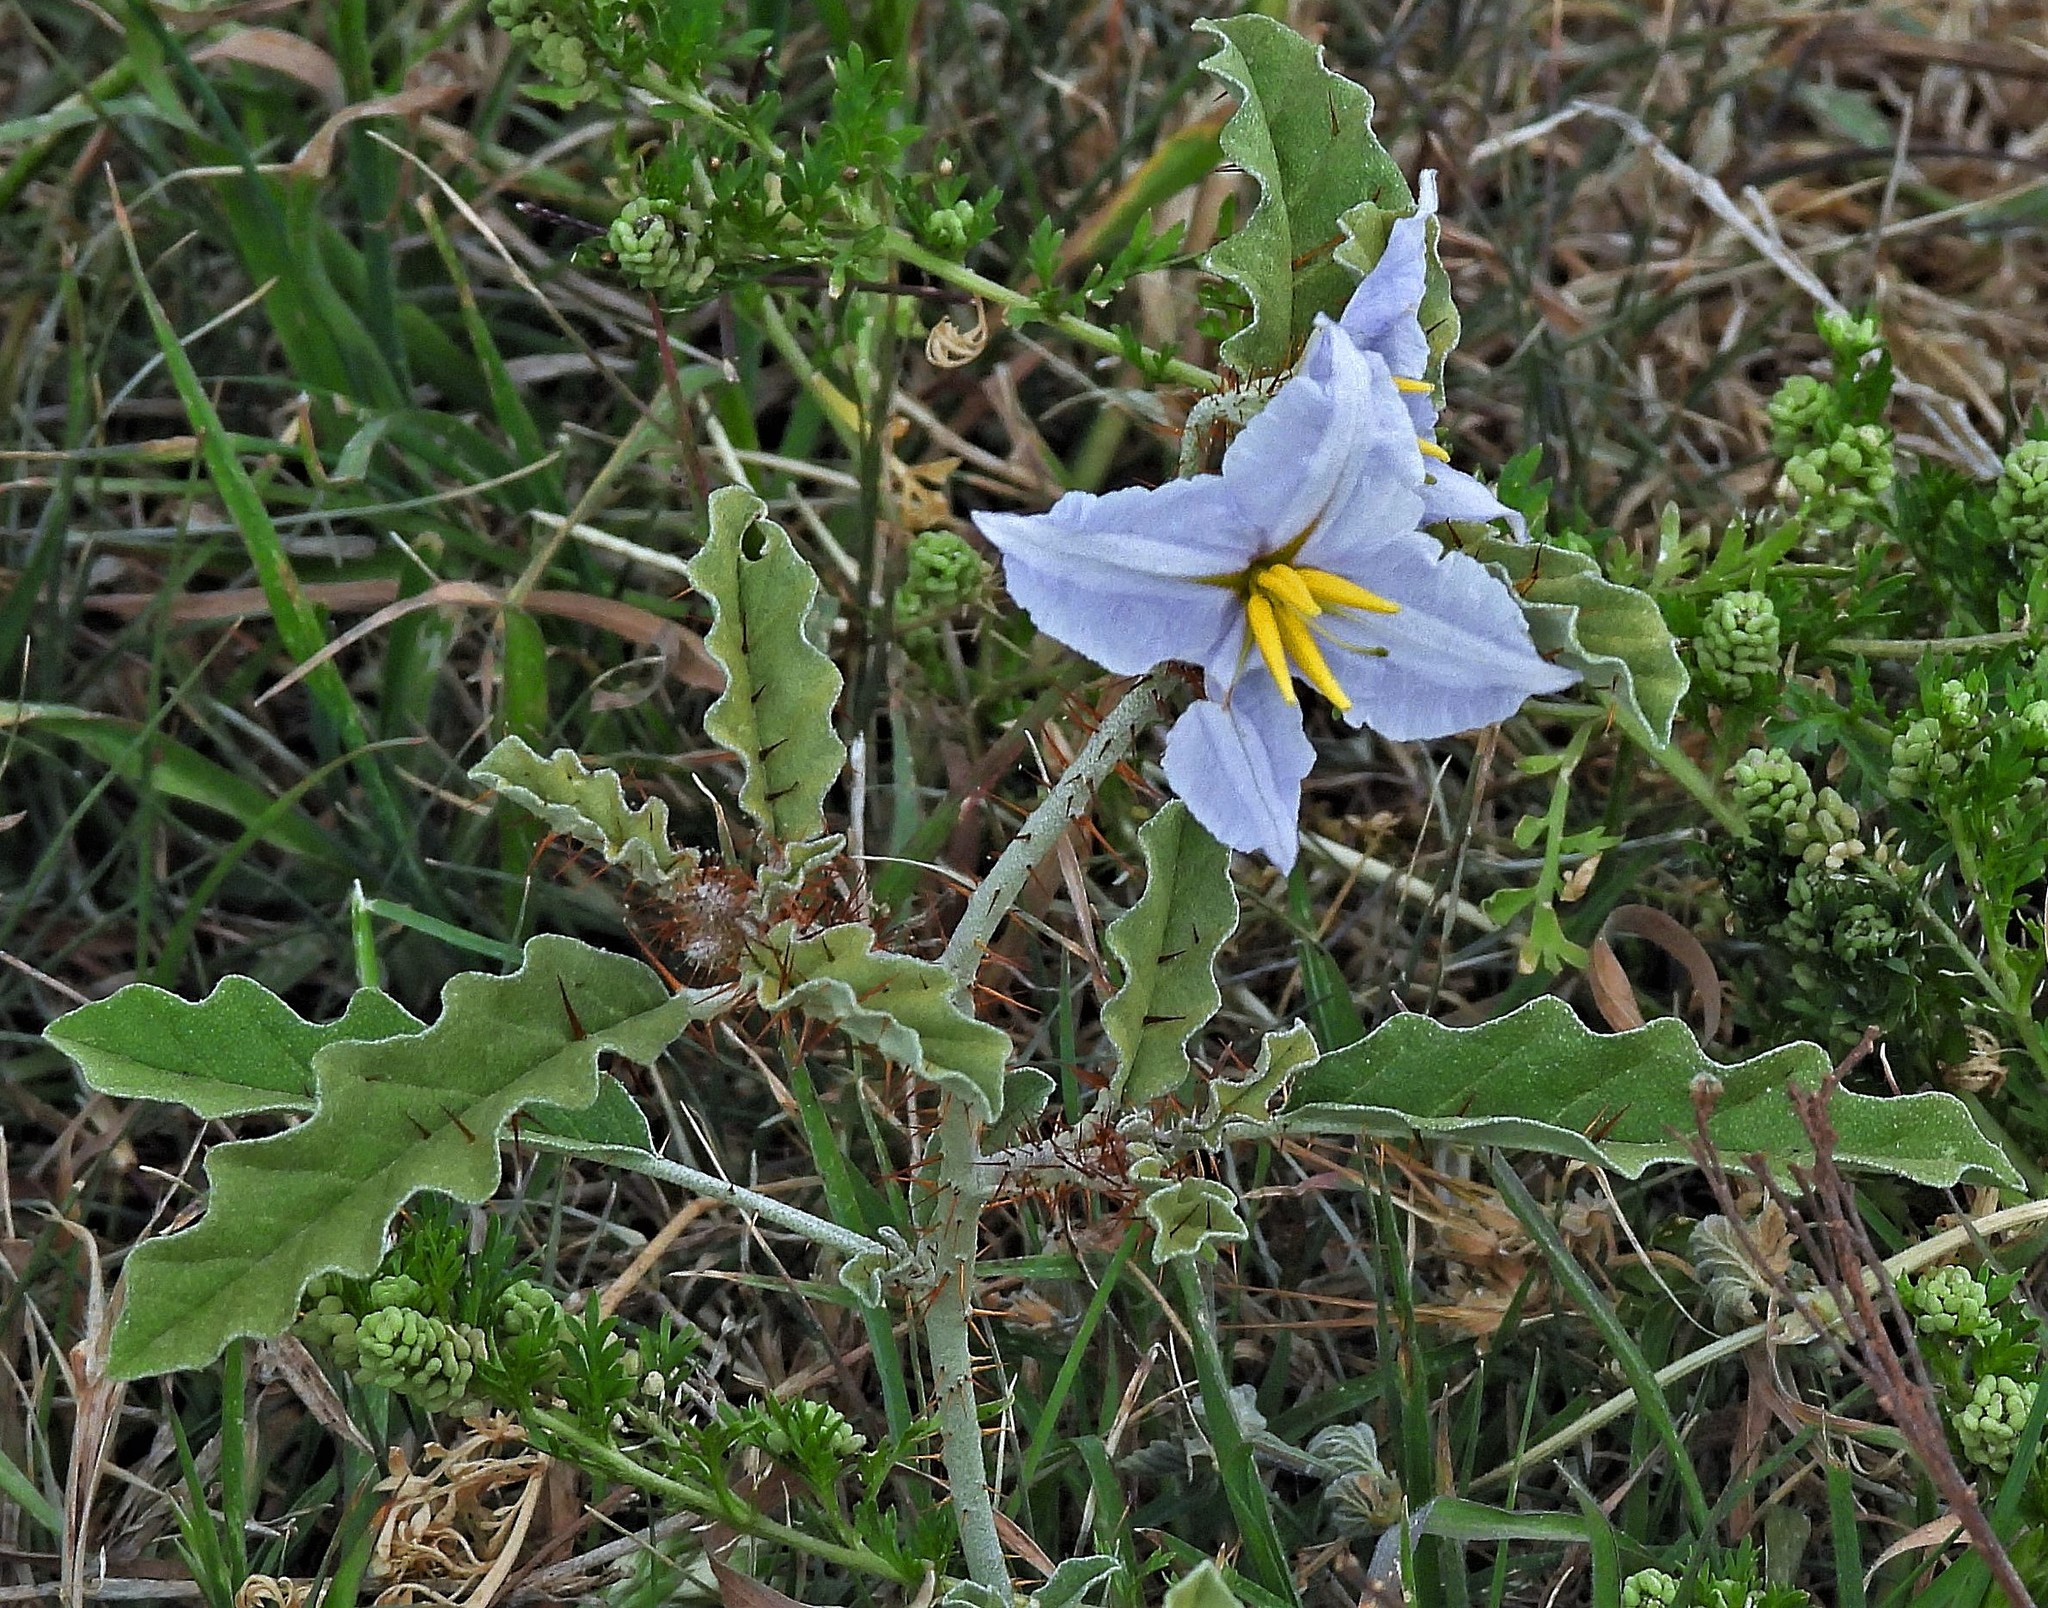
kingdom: Plantae
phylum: Tracheophyta
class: Magnoliopsida
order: Solanales
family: Solanaceae
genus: Solanum
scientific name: Solanum juvenale
